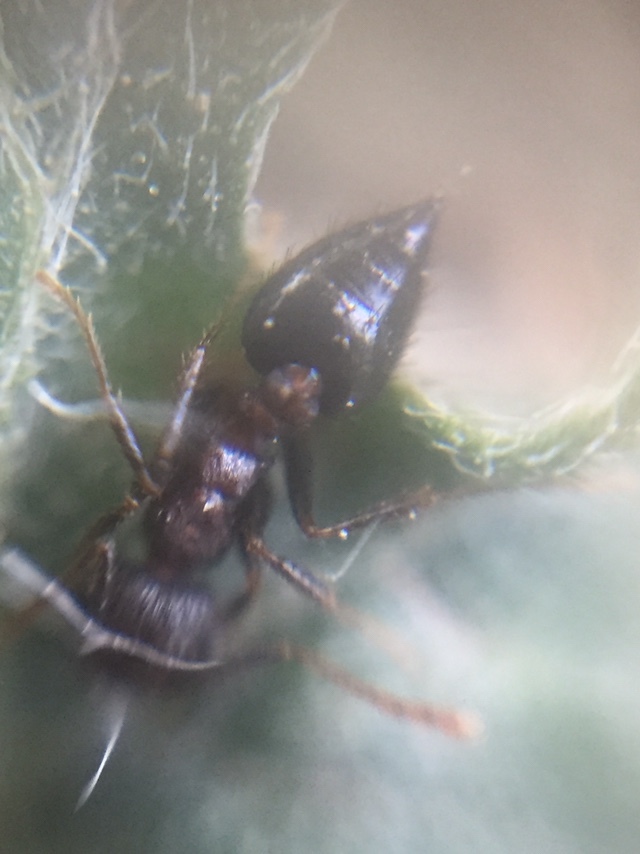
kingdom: Animalia
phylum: Arthropoda
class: Insecta
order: Hymenoptera
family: Formicidae
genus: Crematogaster
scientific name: Crematogaster rothneyi
